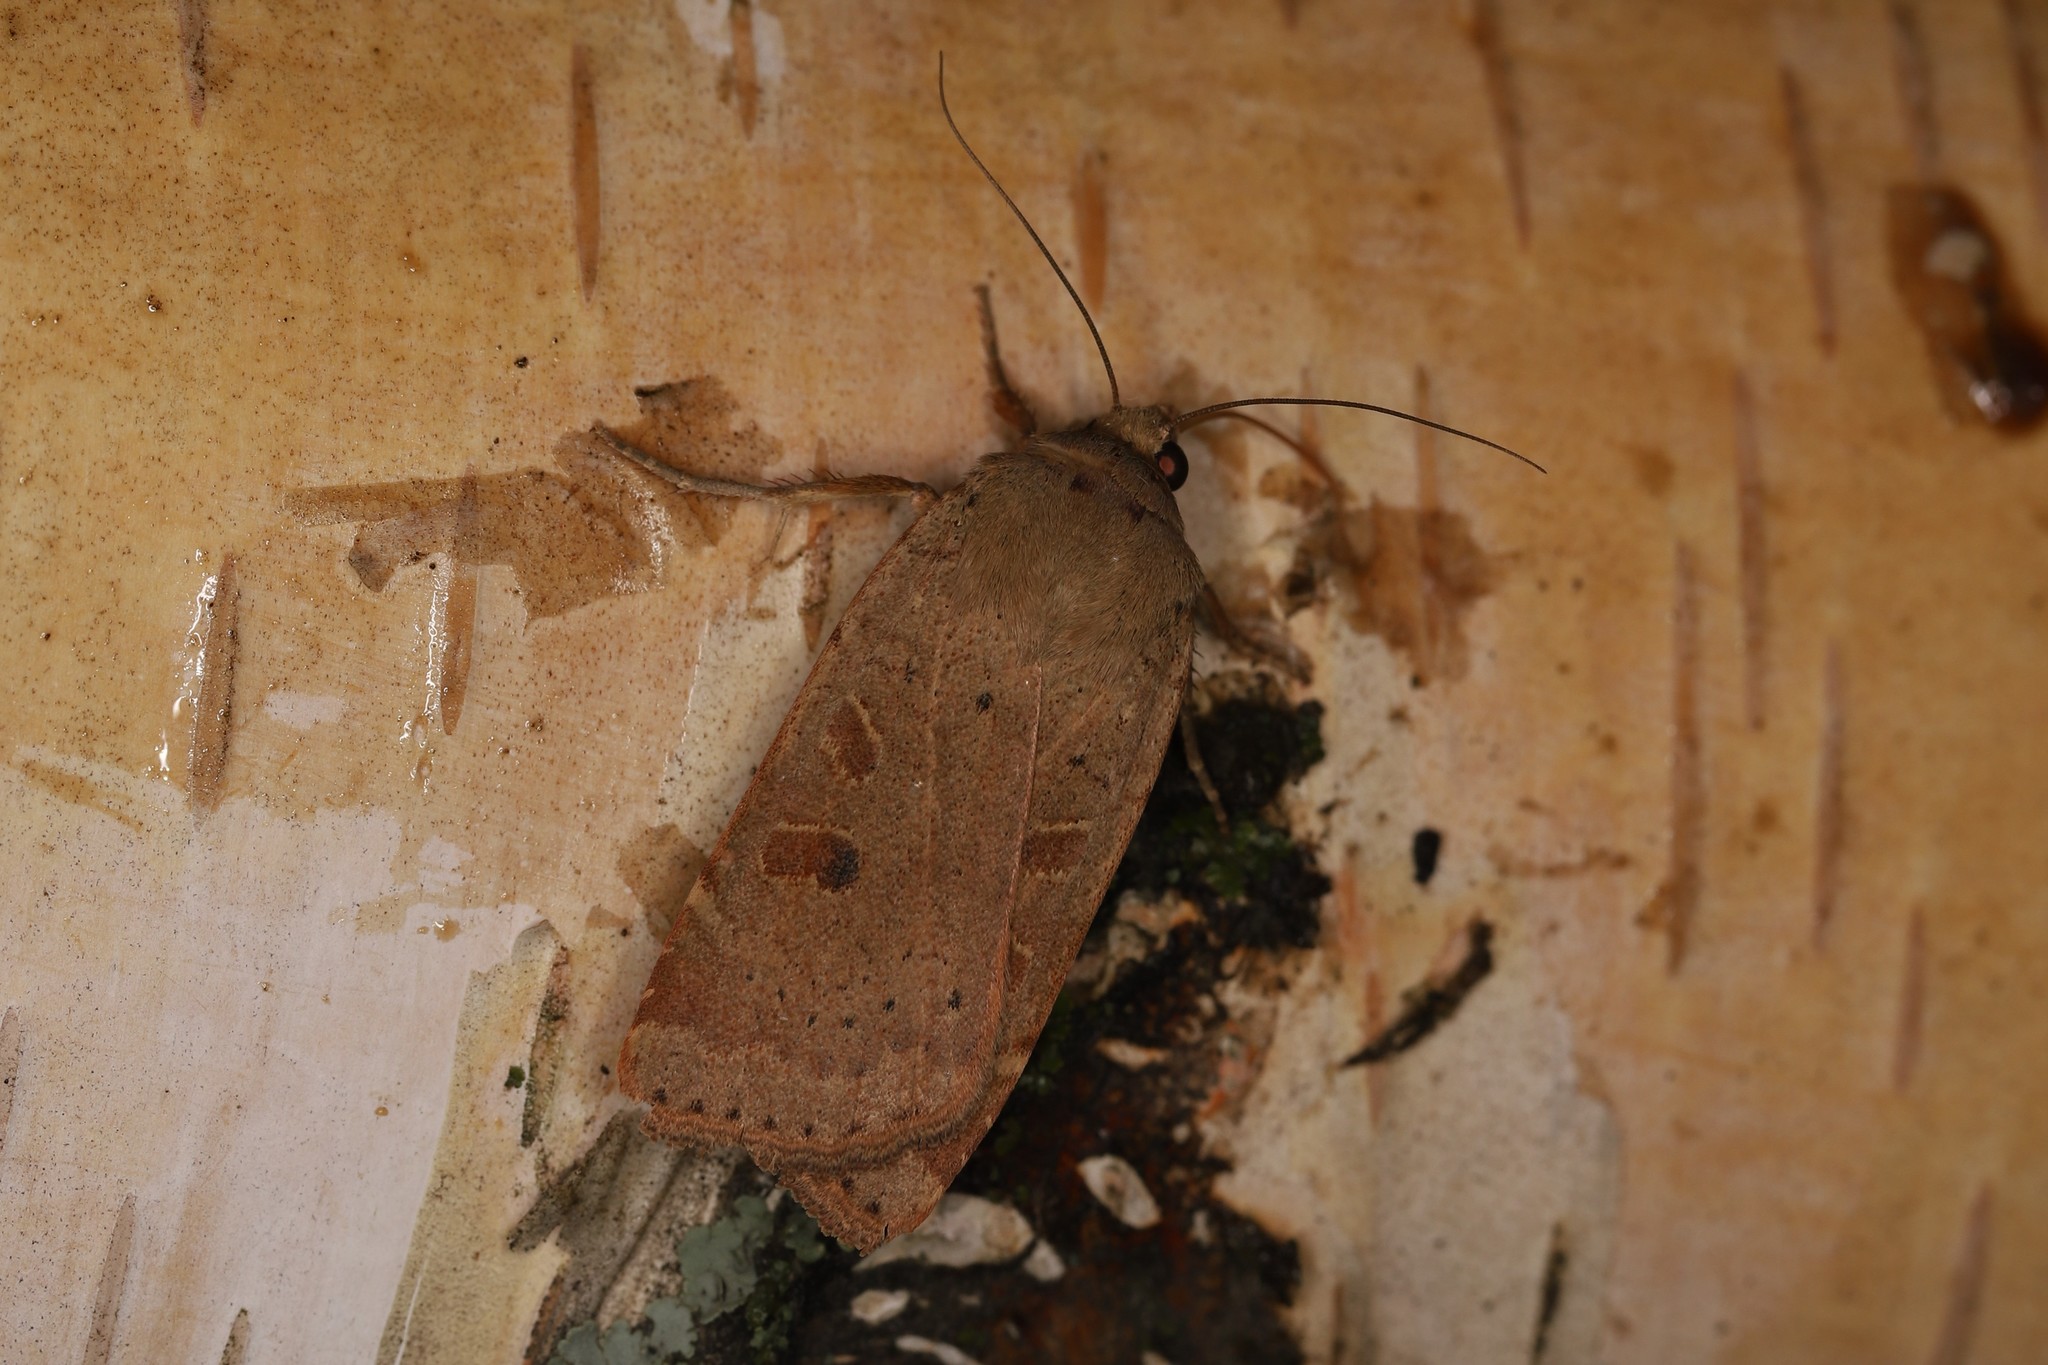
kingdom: Animalia
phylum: Arthropoda
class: Insecta
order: Lepidoptera
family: Noctuidae
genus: Noctua
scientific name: Noctua comes
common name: Lesser yellow underwing
